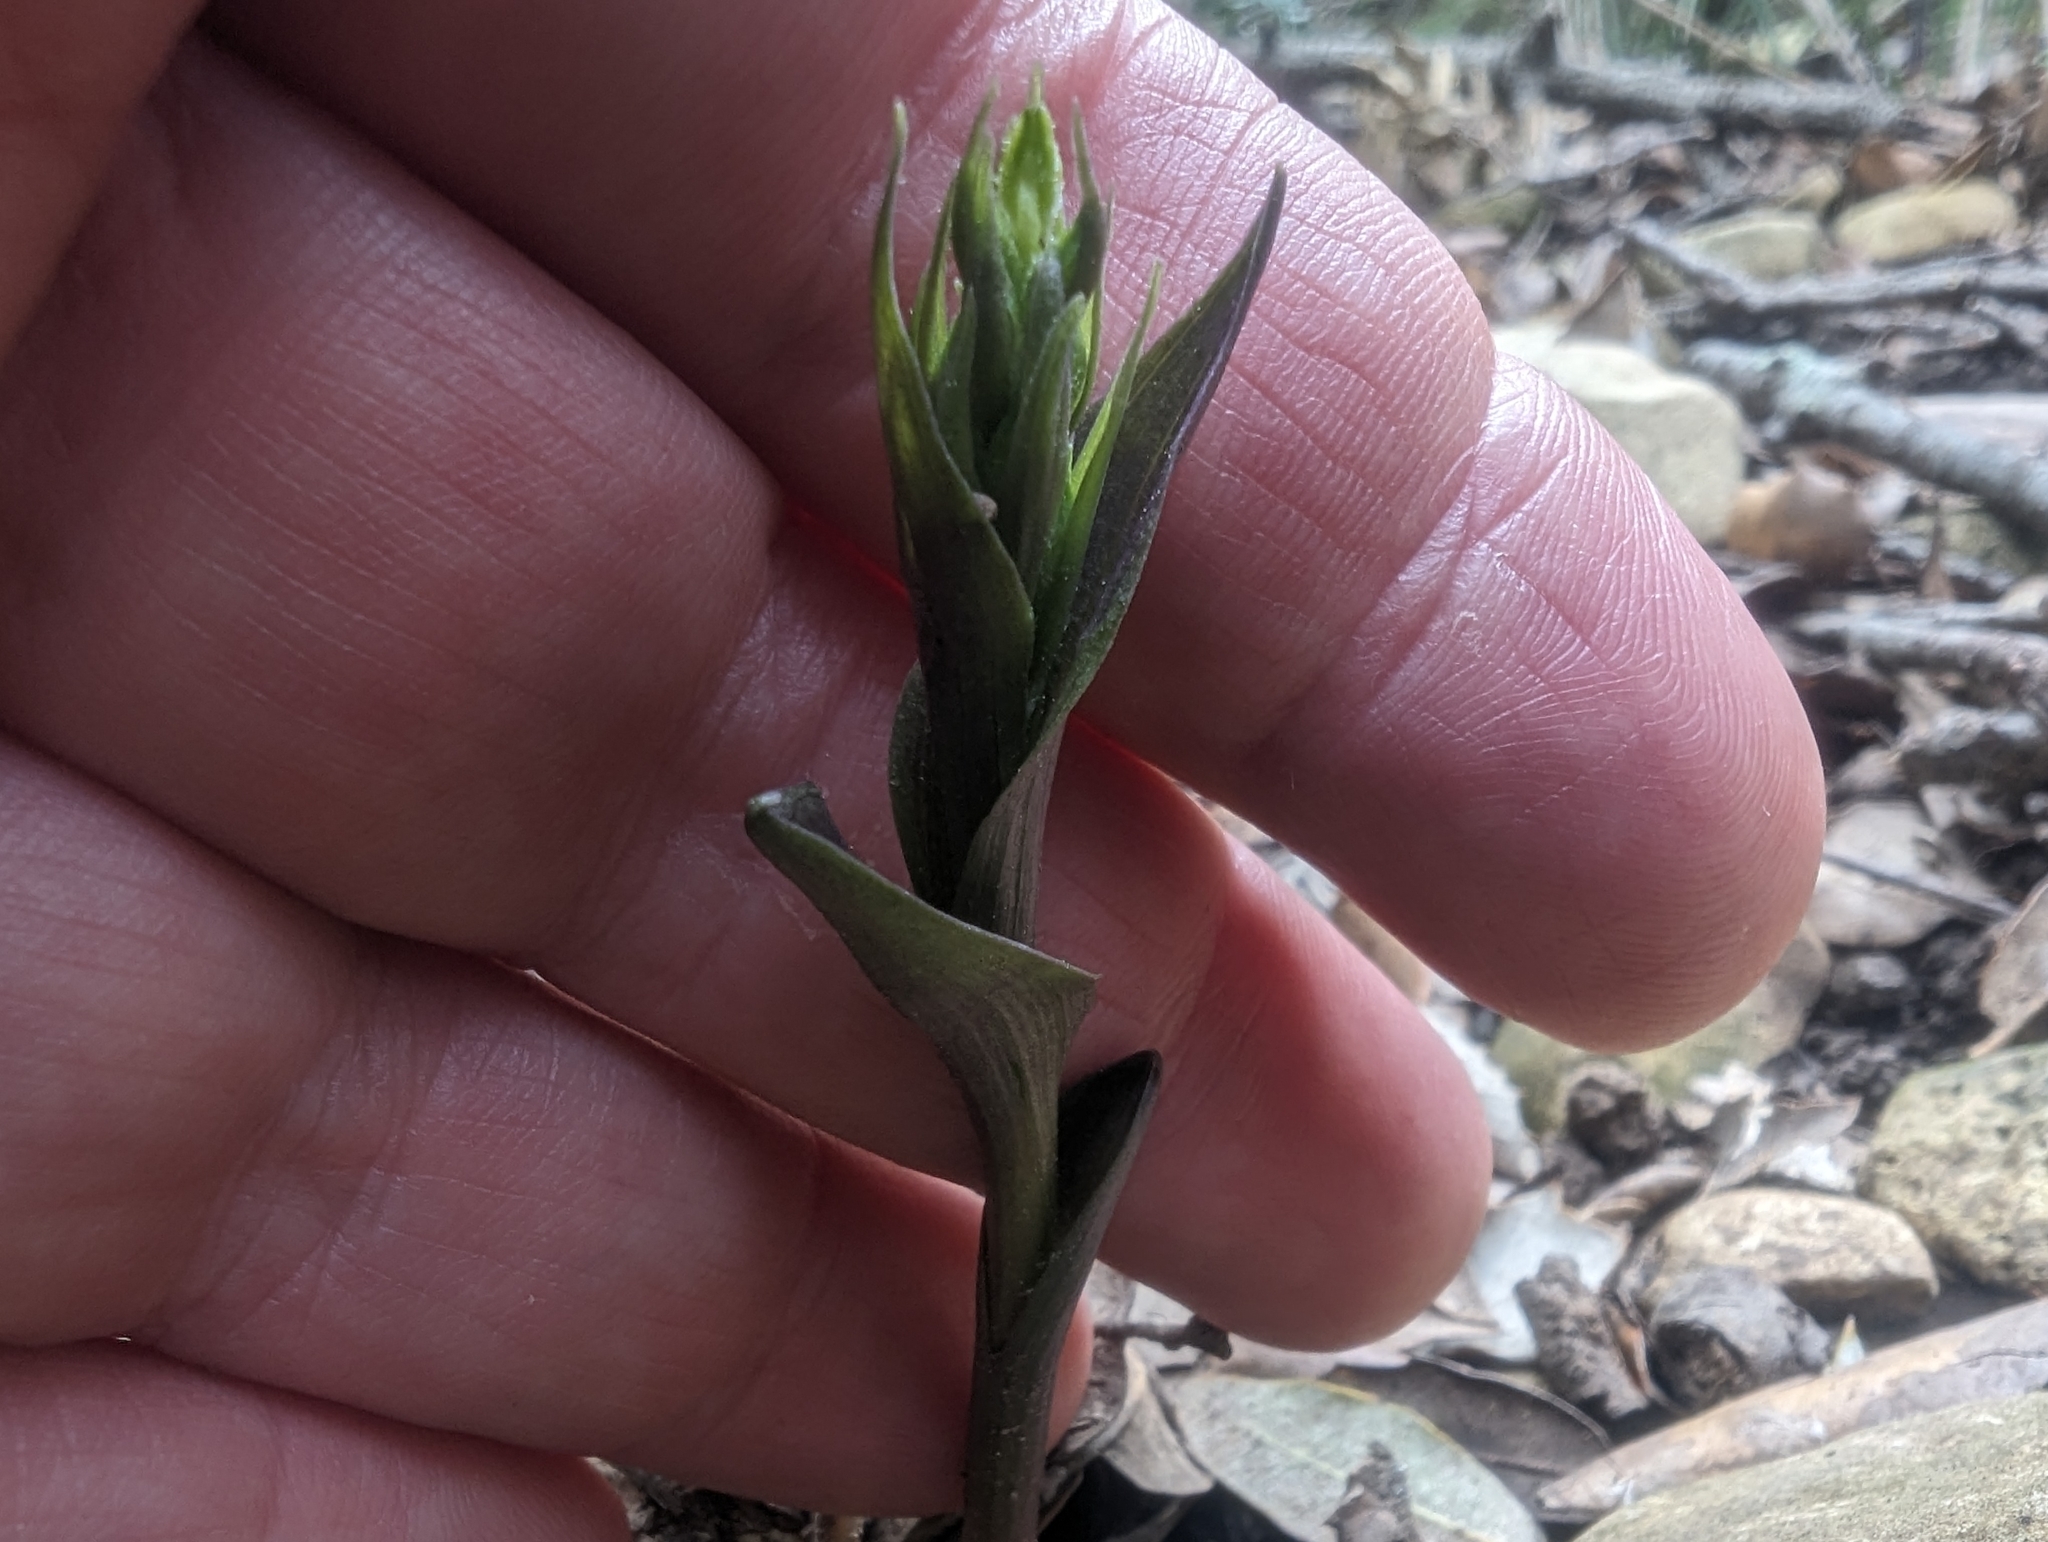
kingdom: Plantae
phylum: Tracheophyta
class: Liliopsida
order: Asparagales
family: Orchidaceae
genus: Epipactis
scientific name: Epipactis microphylla
